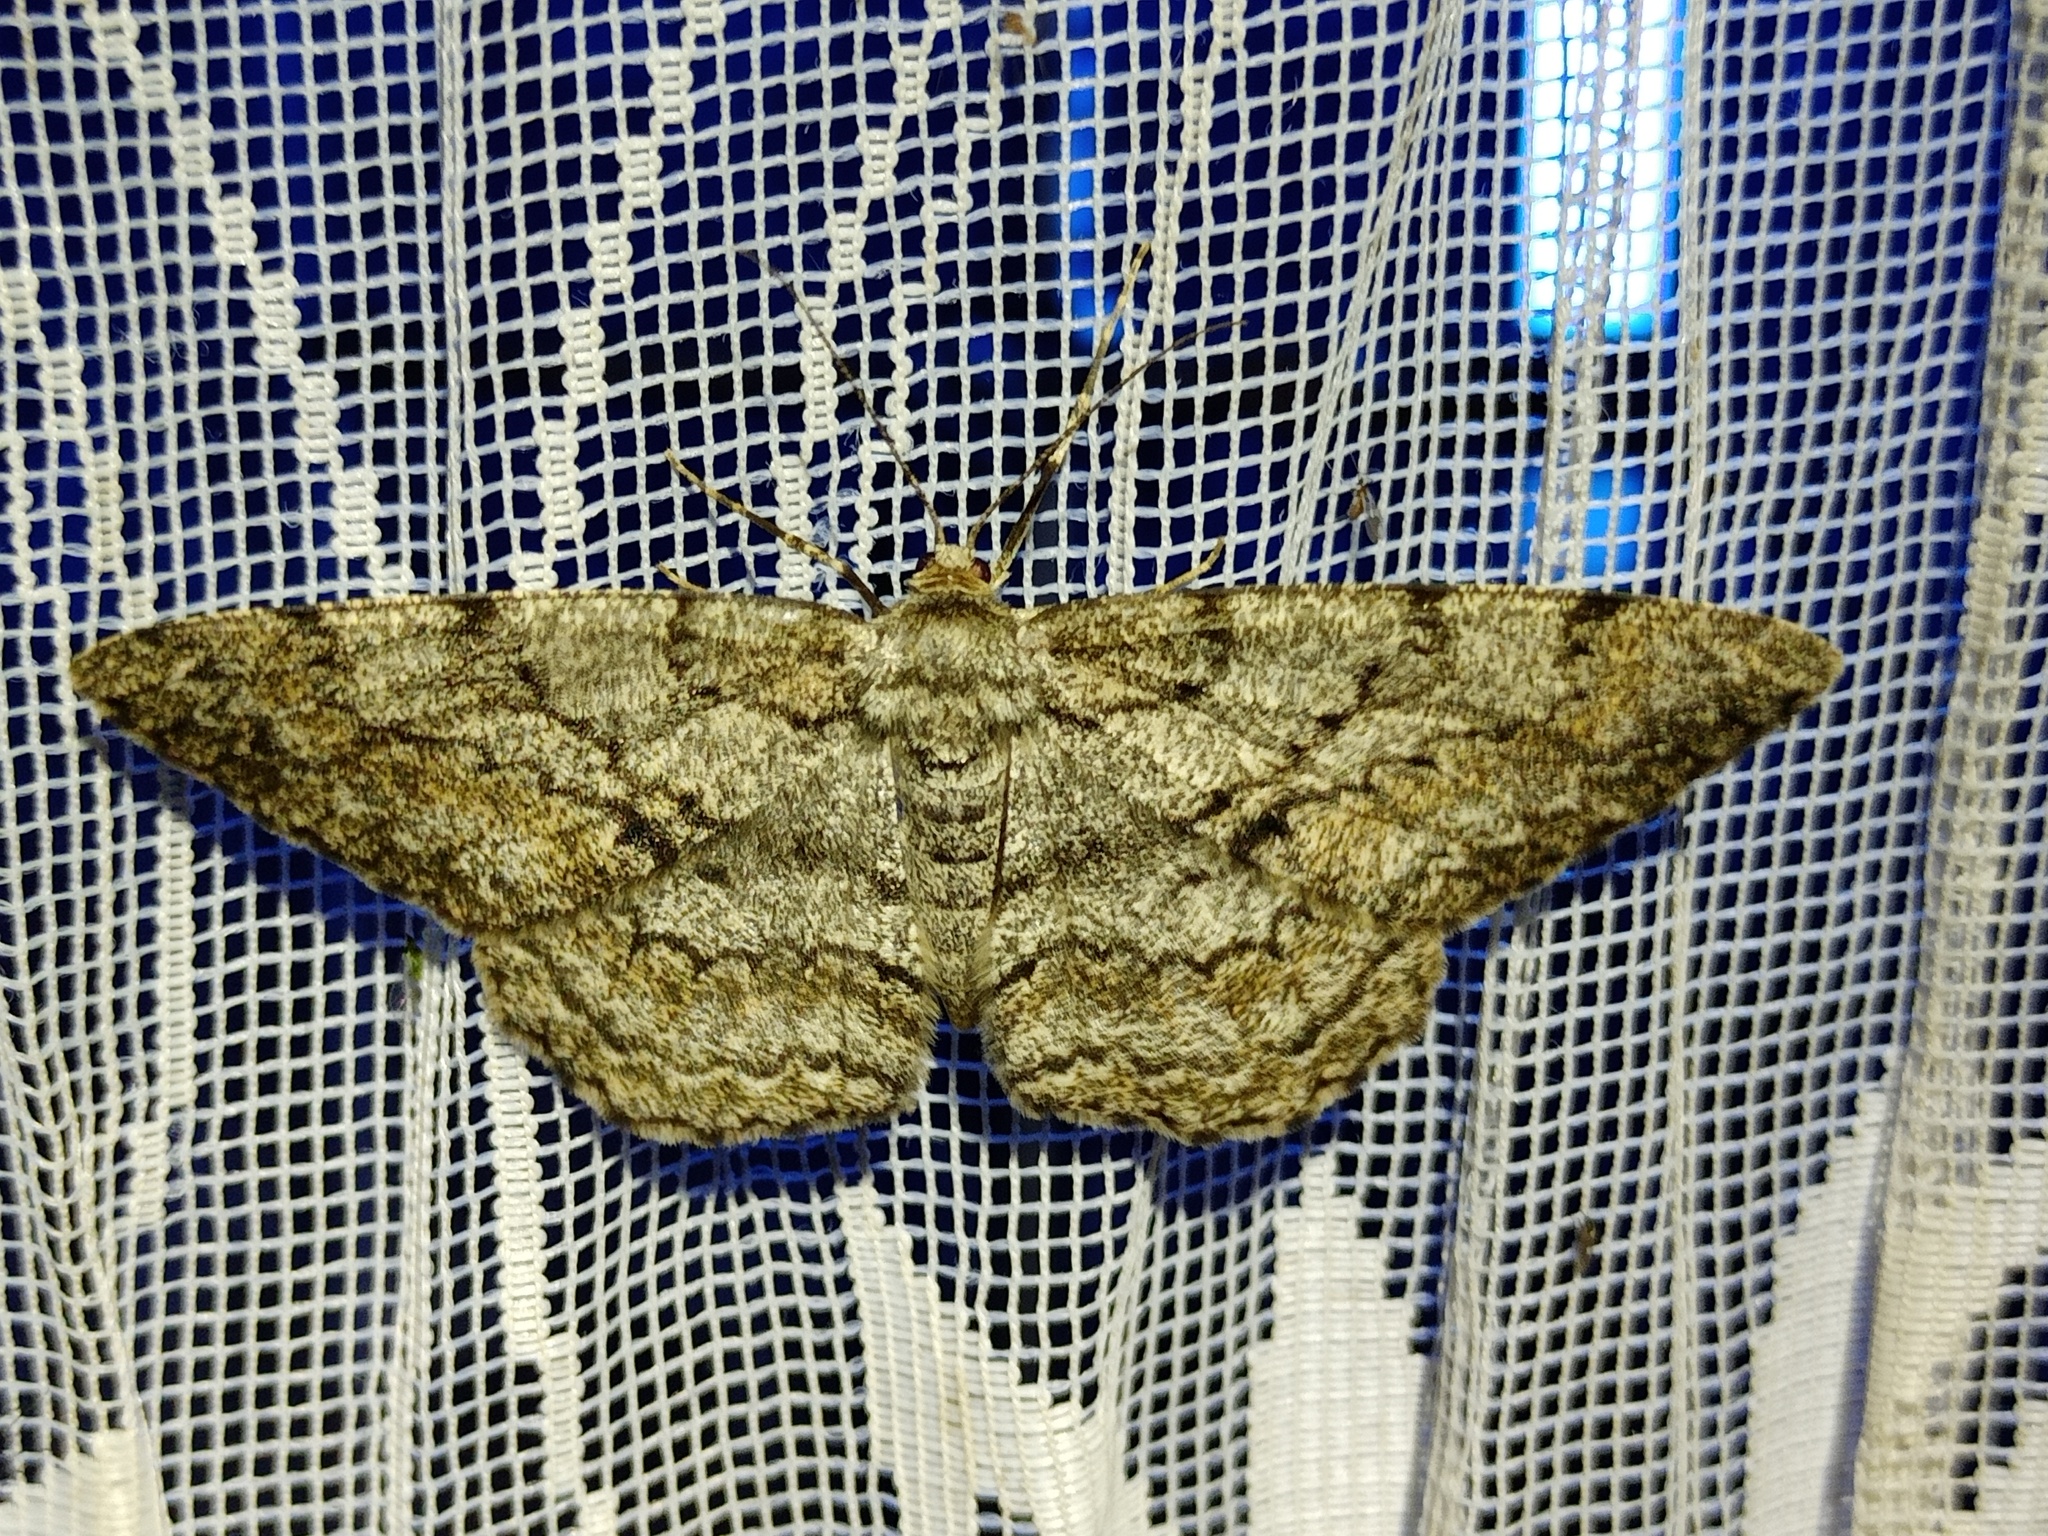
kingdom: Animalia
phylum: Arthropoda
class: Insecta
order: Lepidoptera
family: Geometridae
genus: Hypomecis
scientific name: Hypomecis roboraria
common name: Great oak beauty
